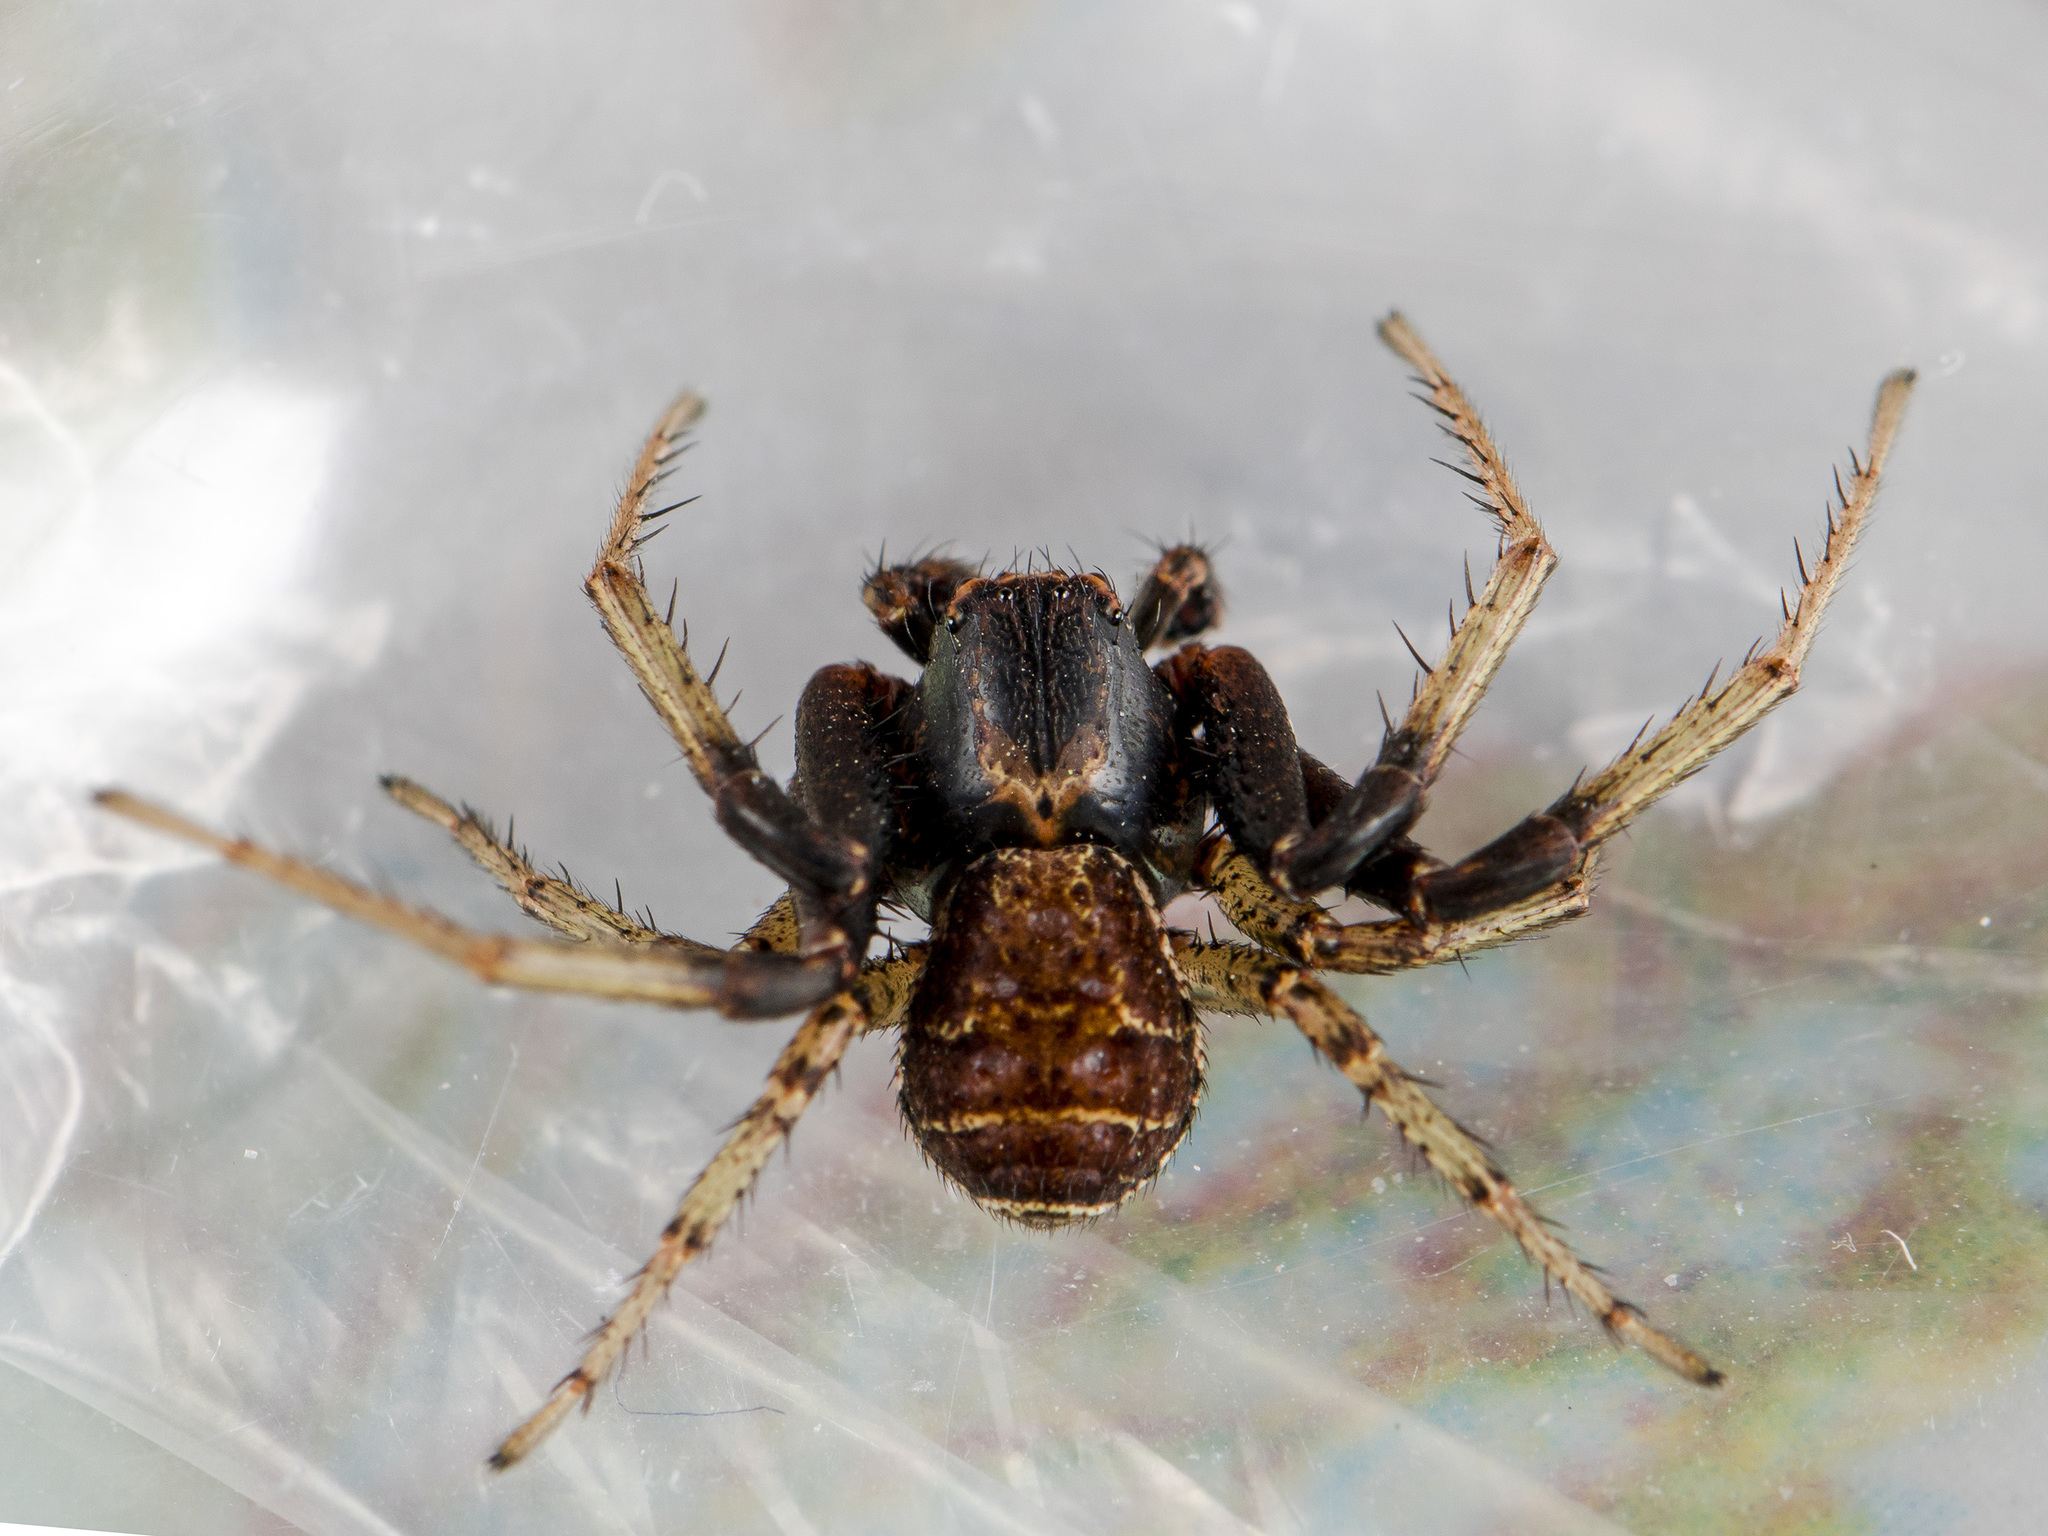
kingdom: Animalia
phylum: Arthropoda
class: Arachnida
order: Araneae
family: Thomisidae
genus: Xysticus
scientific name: Xysticus ephippiatus
